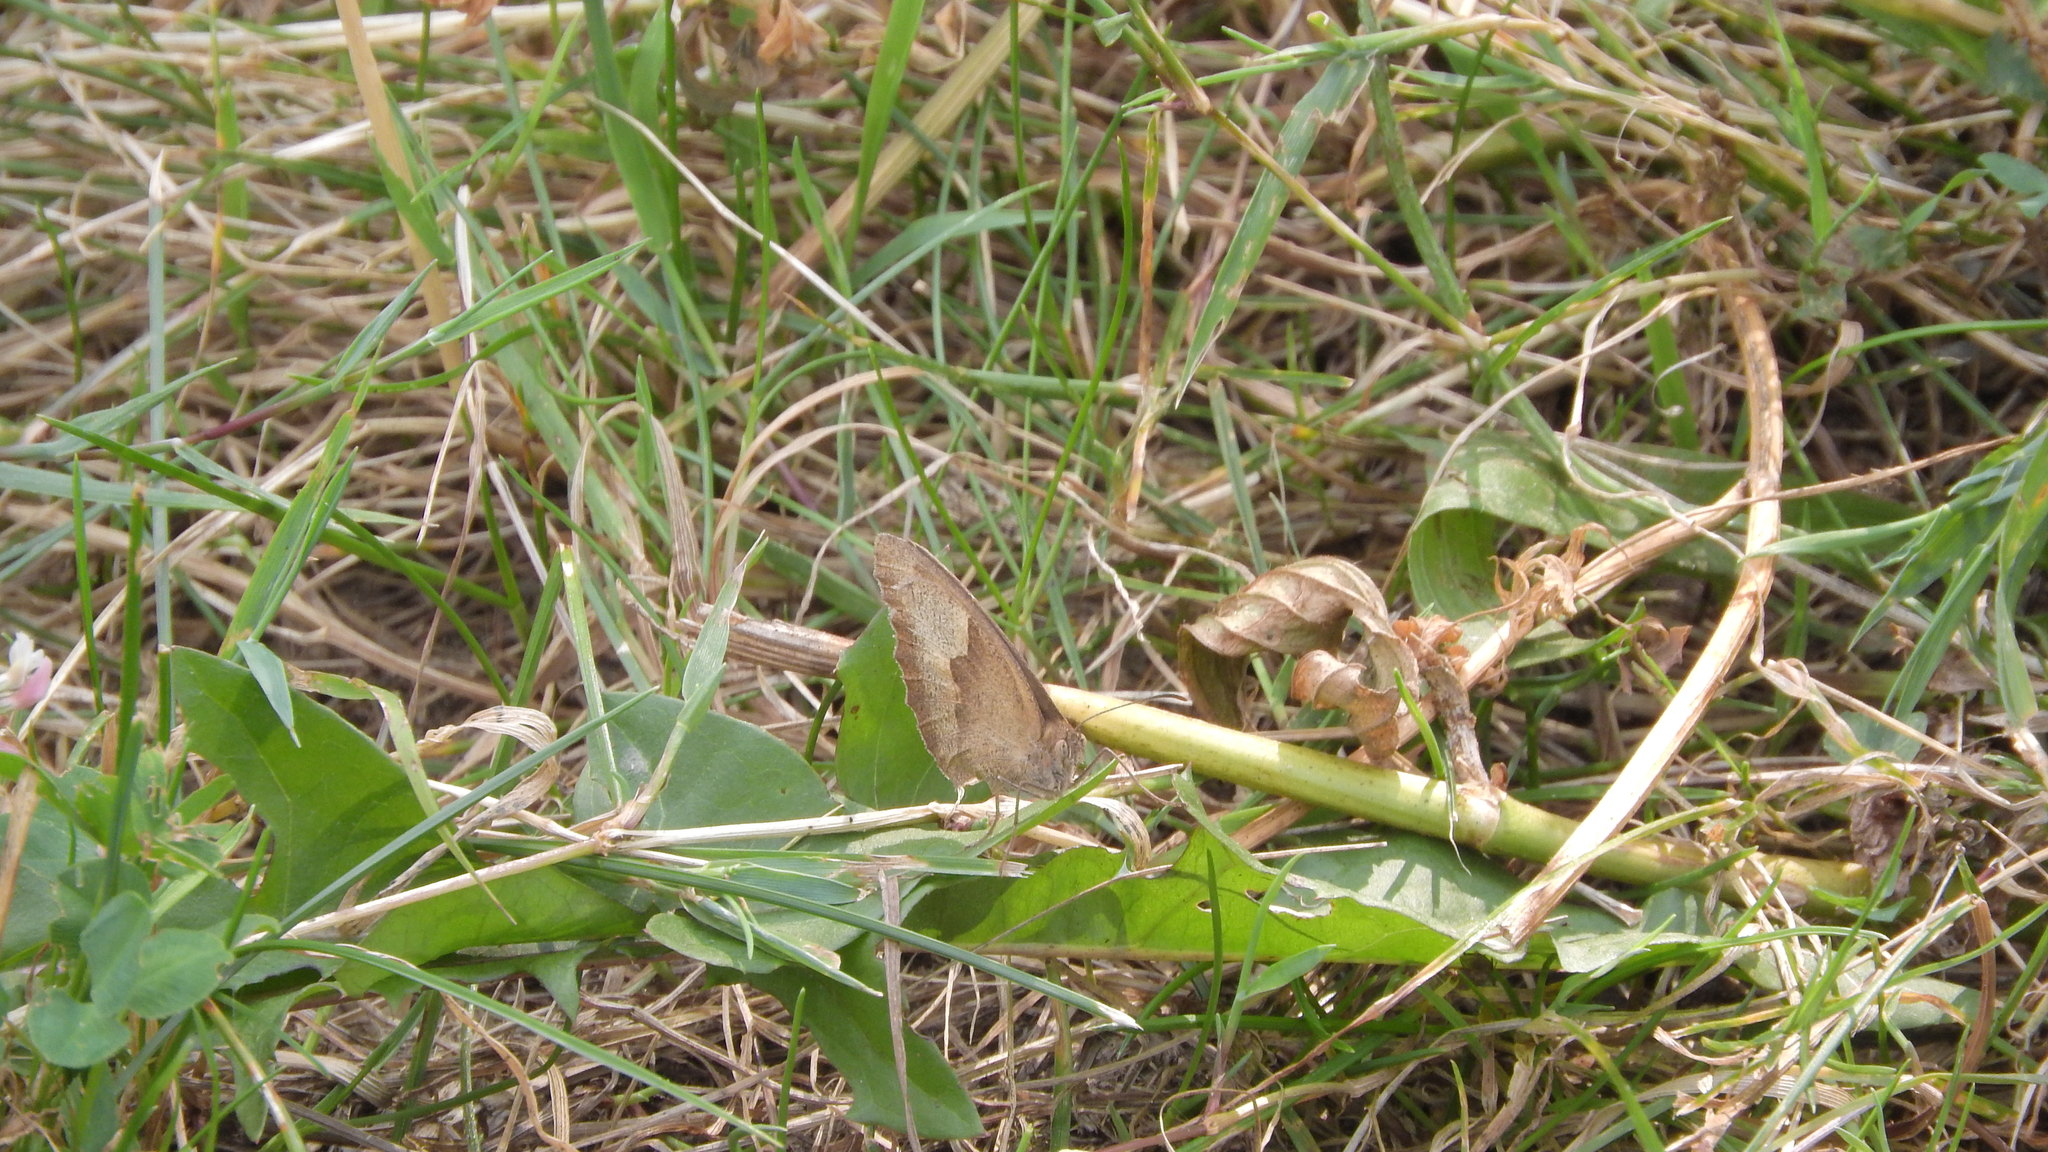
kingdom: Animalia
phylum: Arthropoda
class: Insecta
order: Lepidoptera
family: Nymphalidae
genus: Maniola
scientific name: Maniola jurtina
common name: Meadow brown
